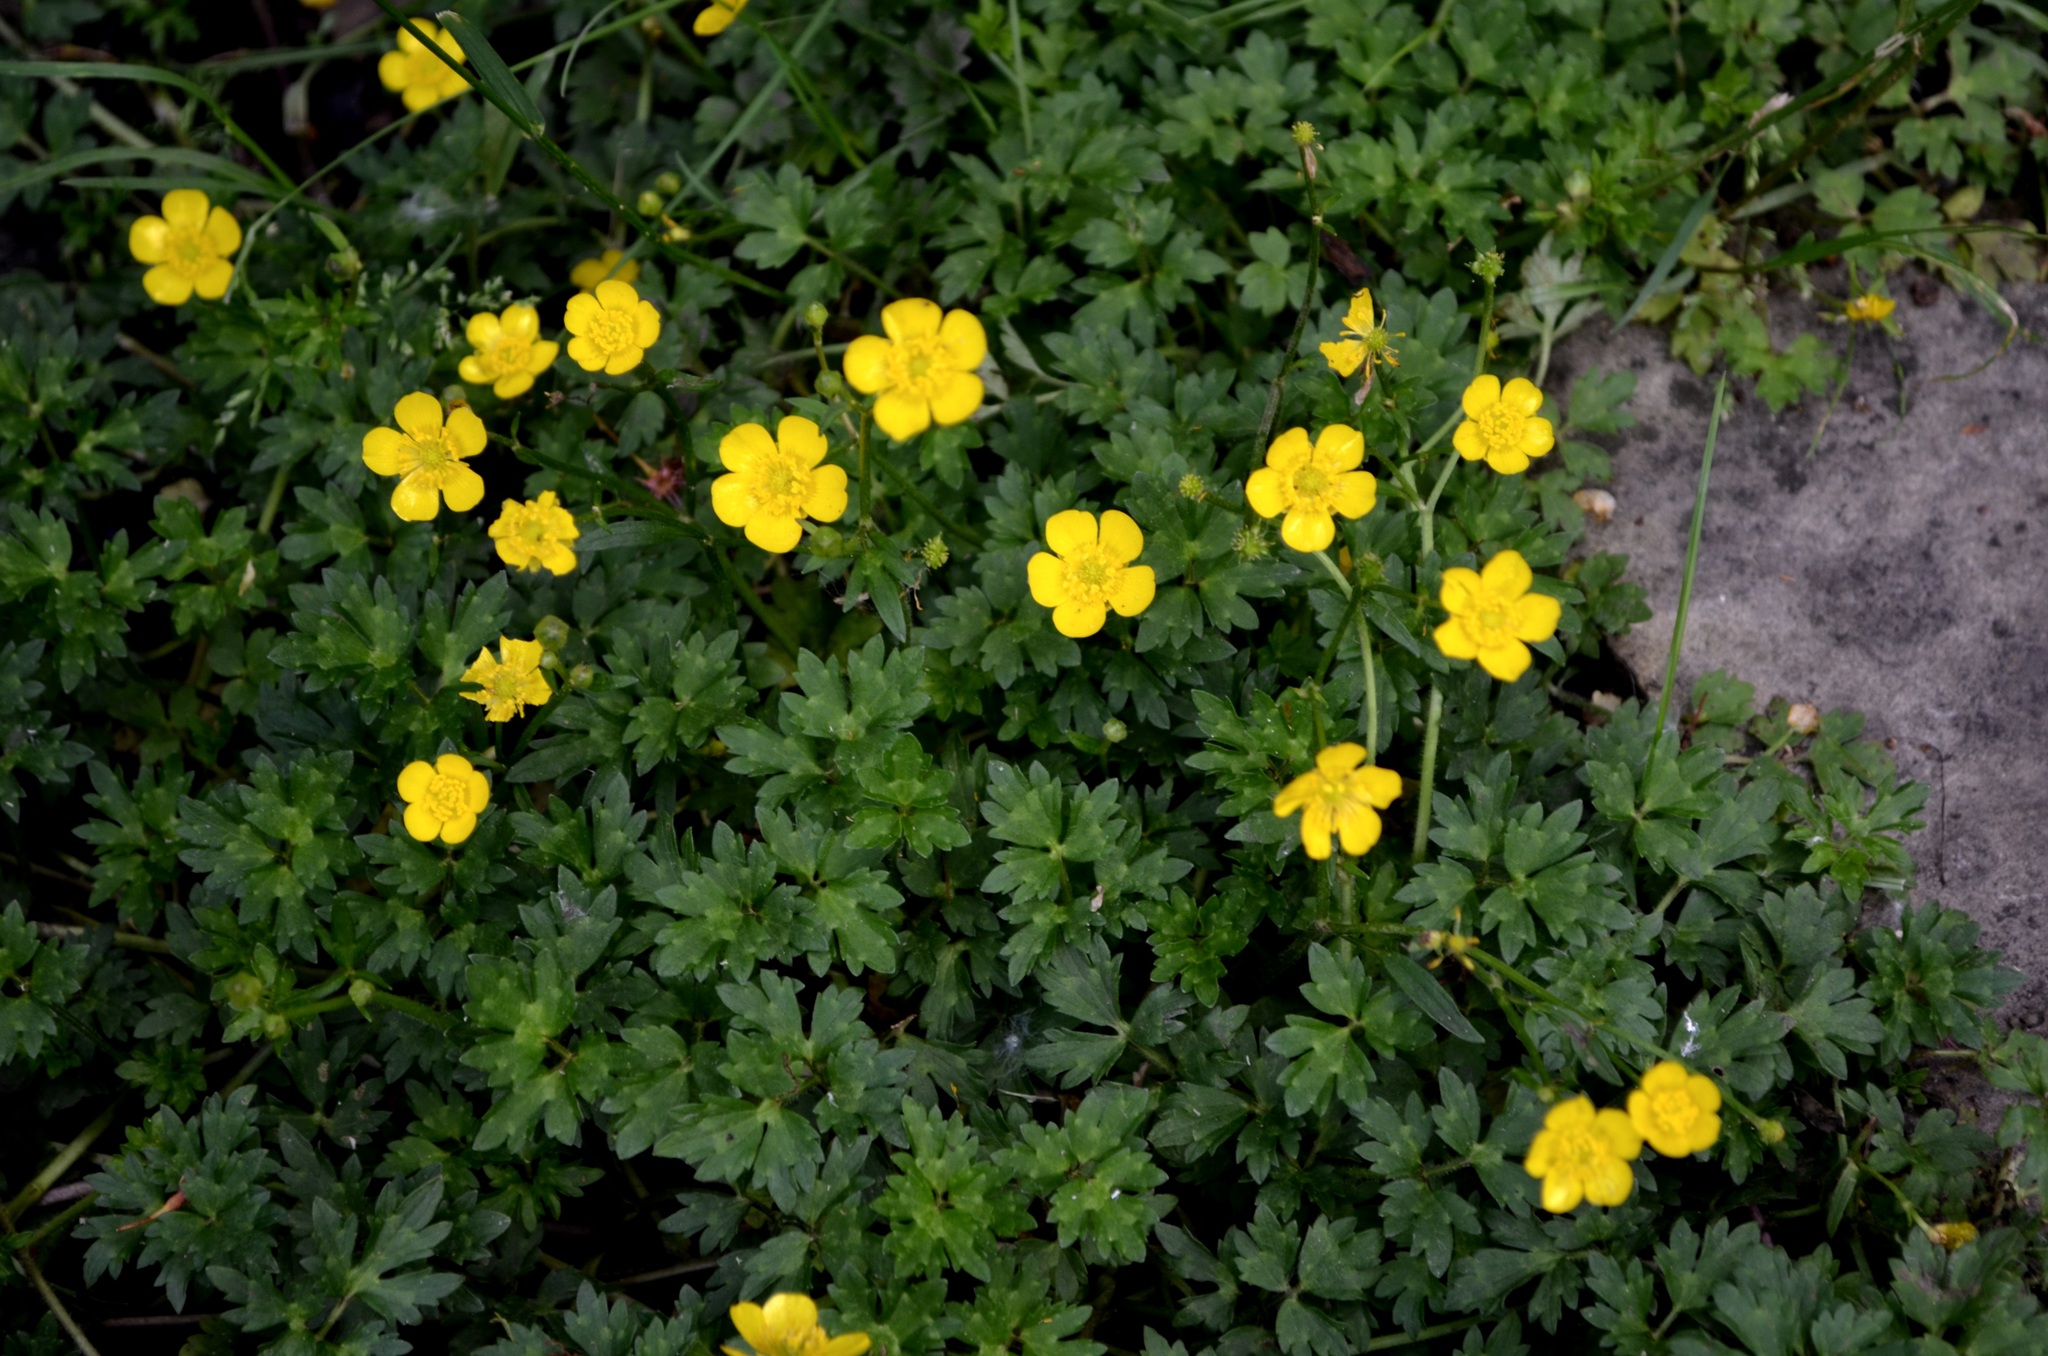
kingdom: Plantae
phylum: Tracheophyta
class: Magnoliopsida
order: Ranunculales
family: Ranunculaceae
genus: Ranunculus
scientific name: Ranunculus repens
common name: Creeping buttercup
